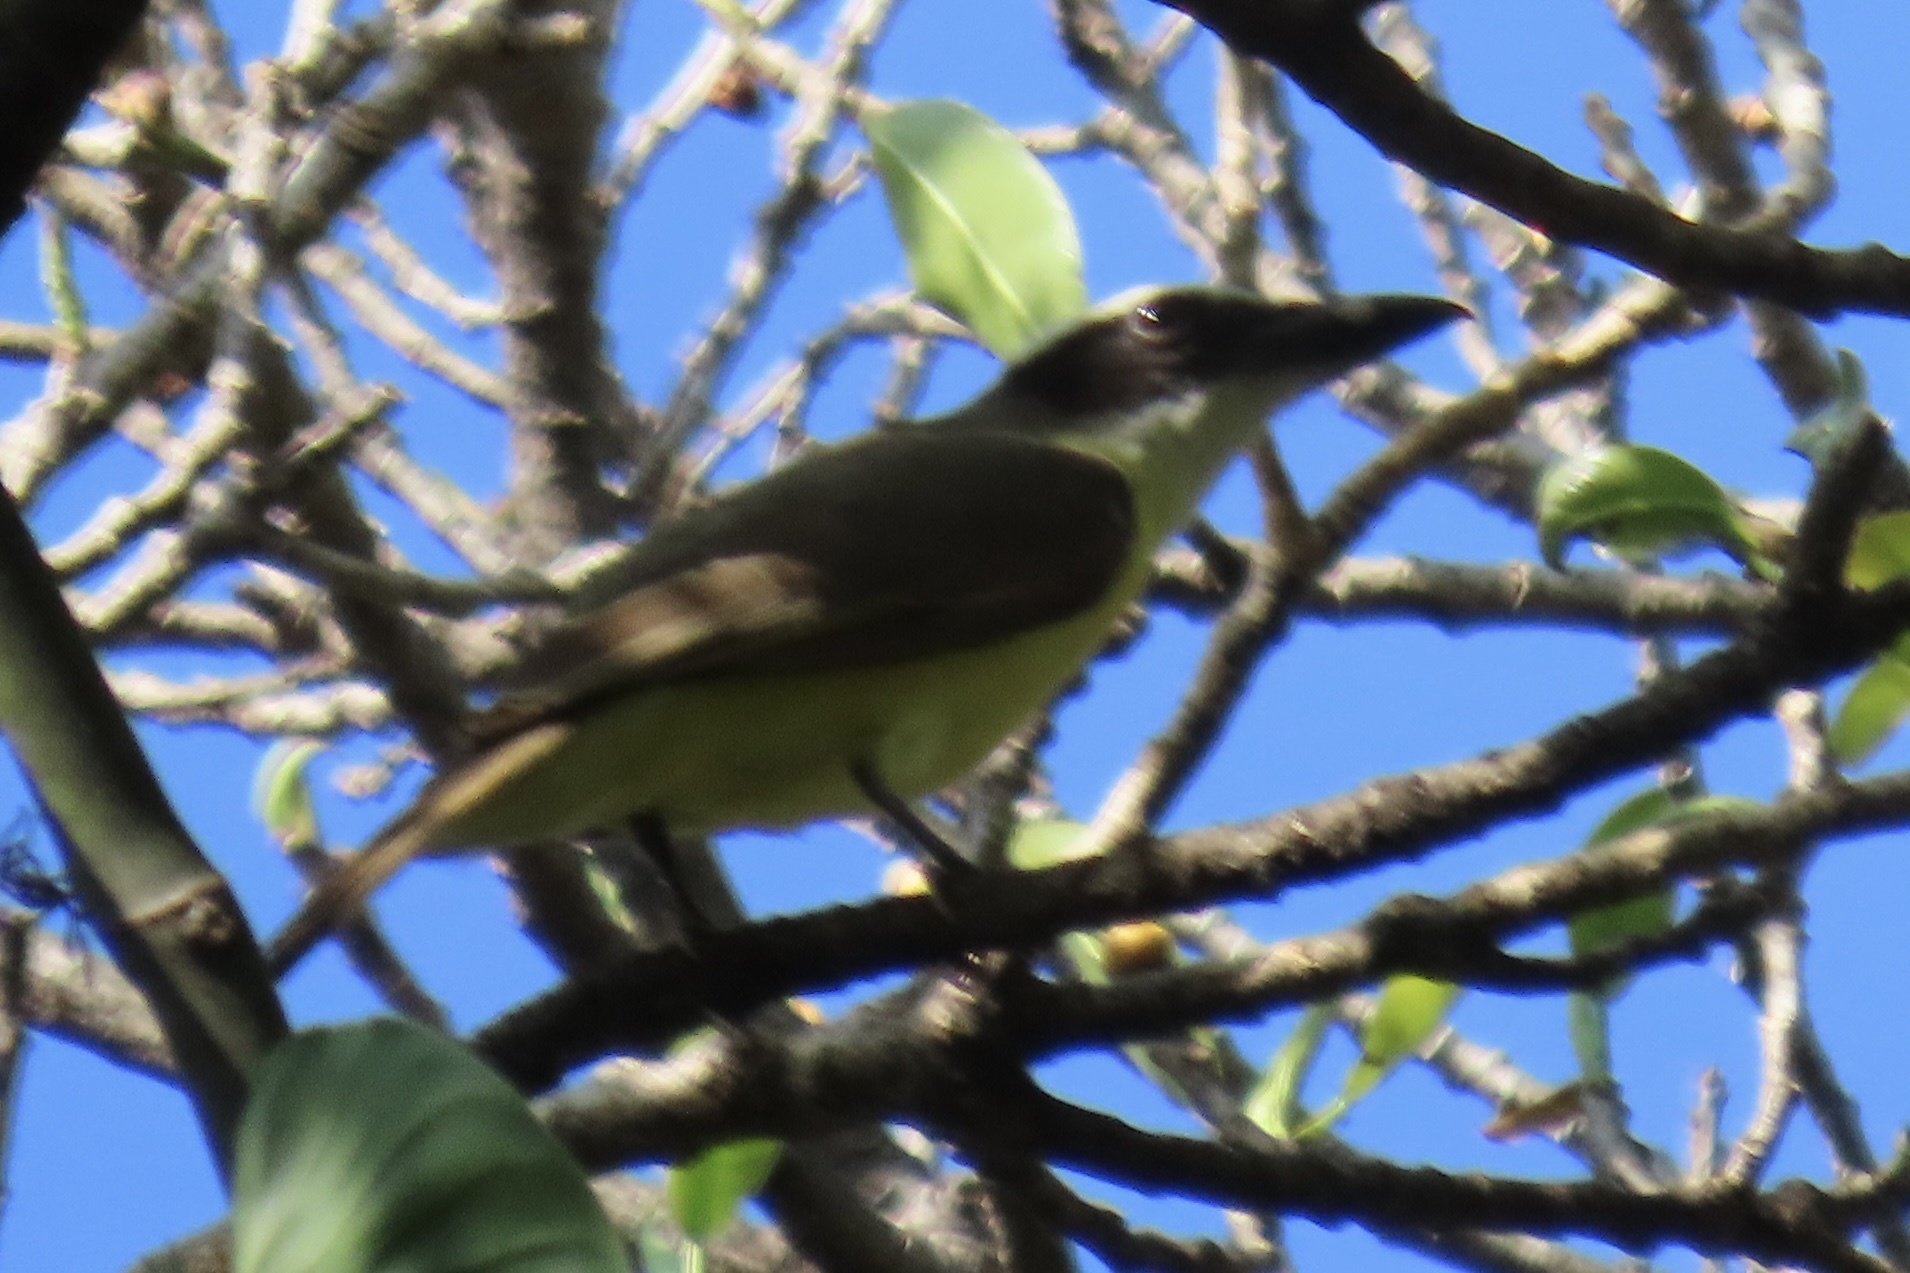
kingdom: Animalia
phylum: Chordata
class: Aves
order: Passeriformes
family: Tyrannidae
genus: Megarynchus
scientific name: Megarynchus pitangua
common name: Boat-billed flycatcher
